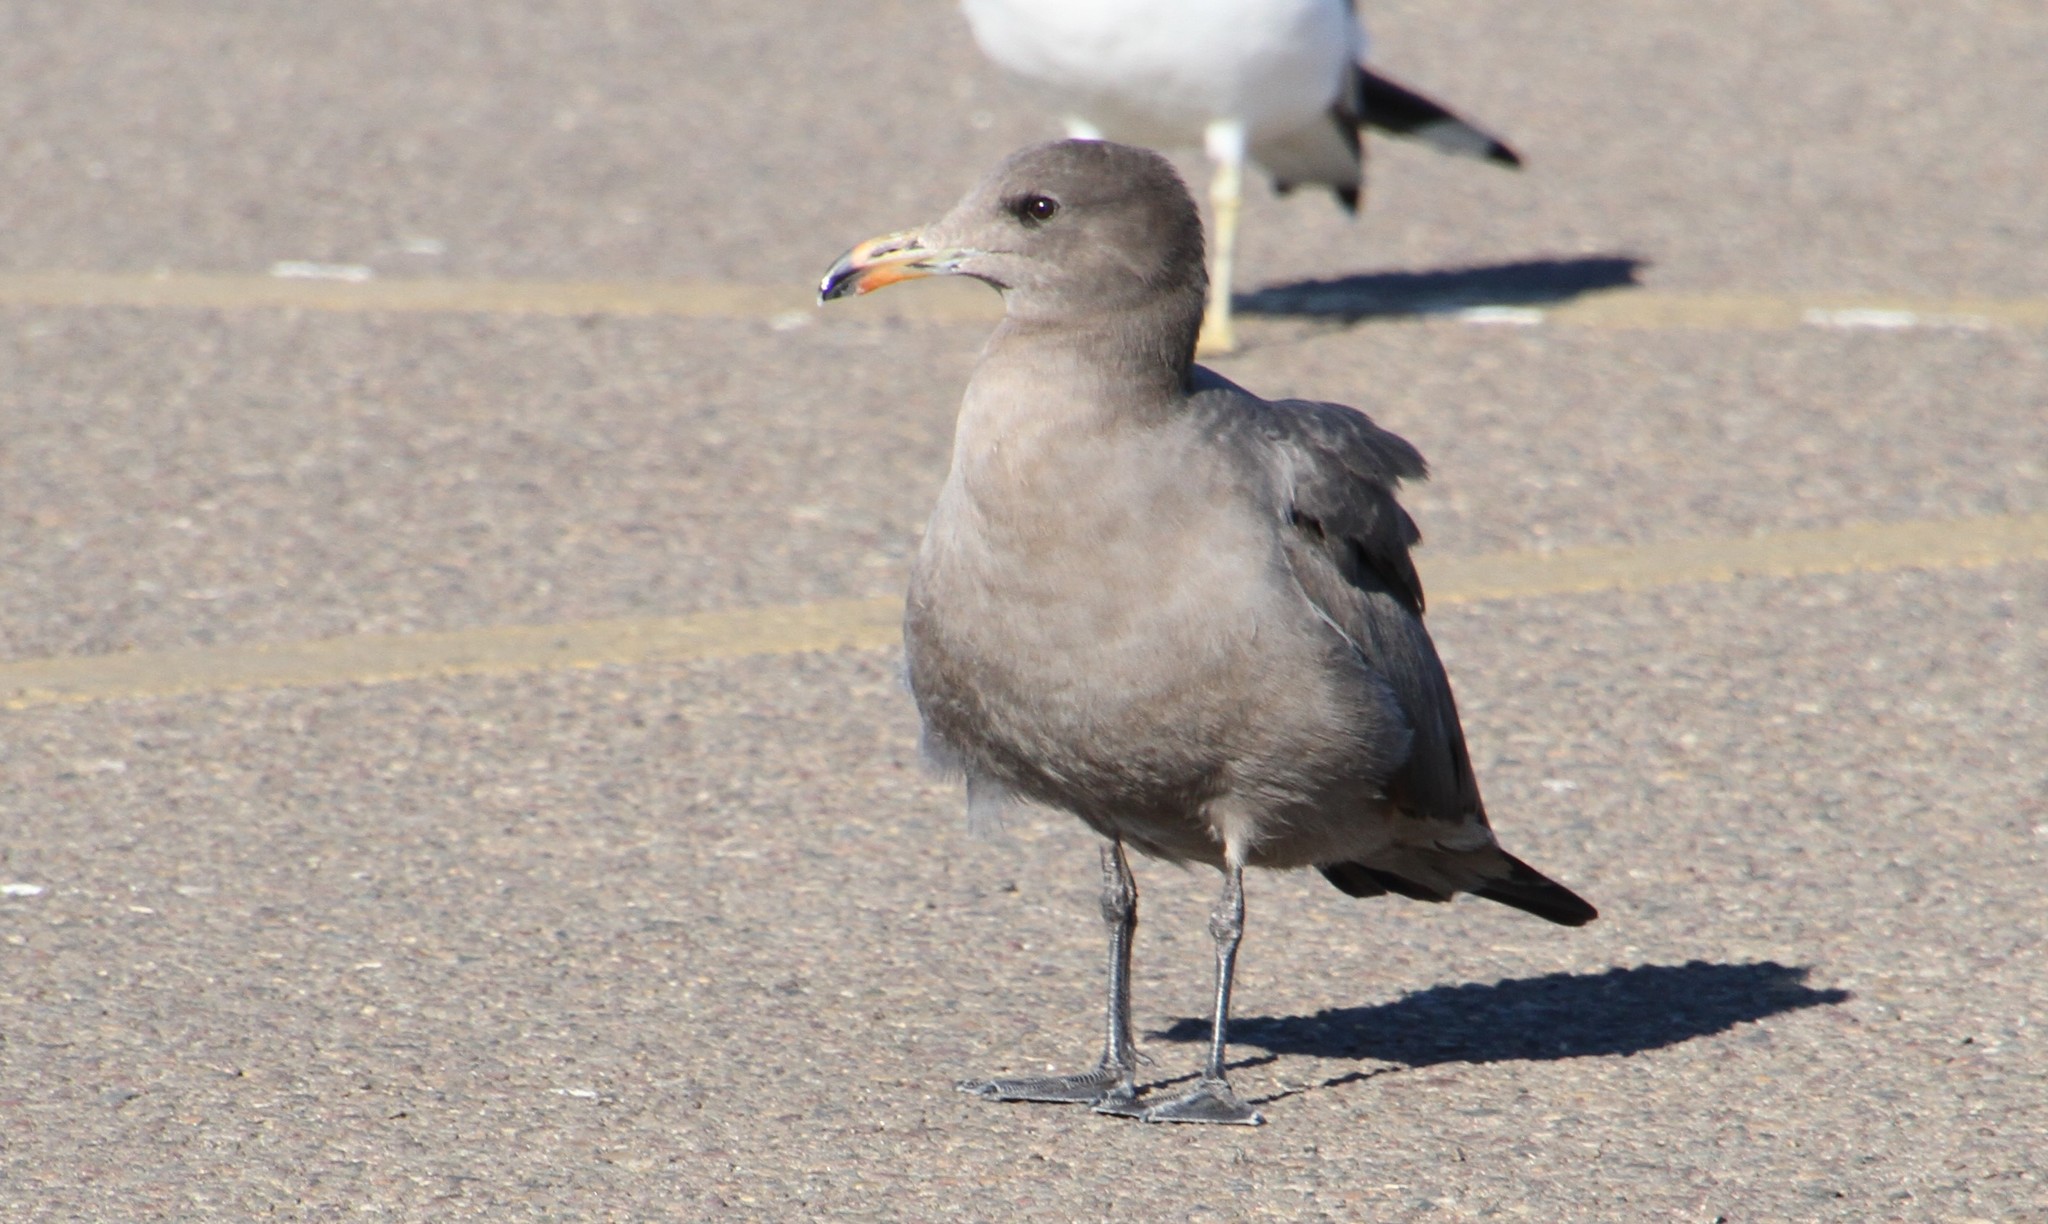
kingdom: Animalia
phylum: Chordata
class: Aves
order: Charadriiformes
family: Laridae
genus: Larus
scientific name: Larus heermanni
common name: Heermann's gull
